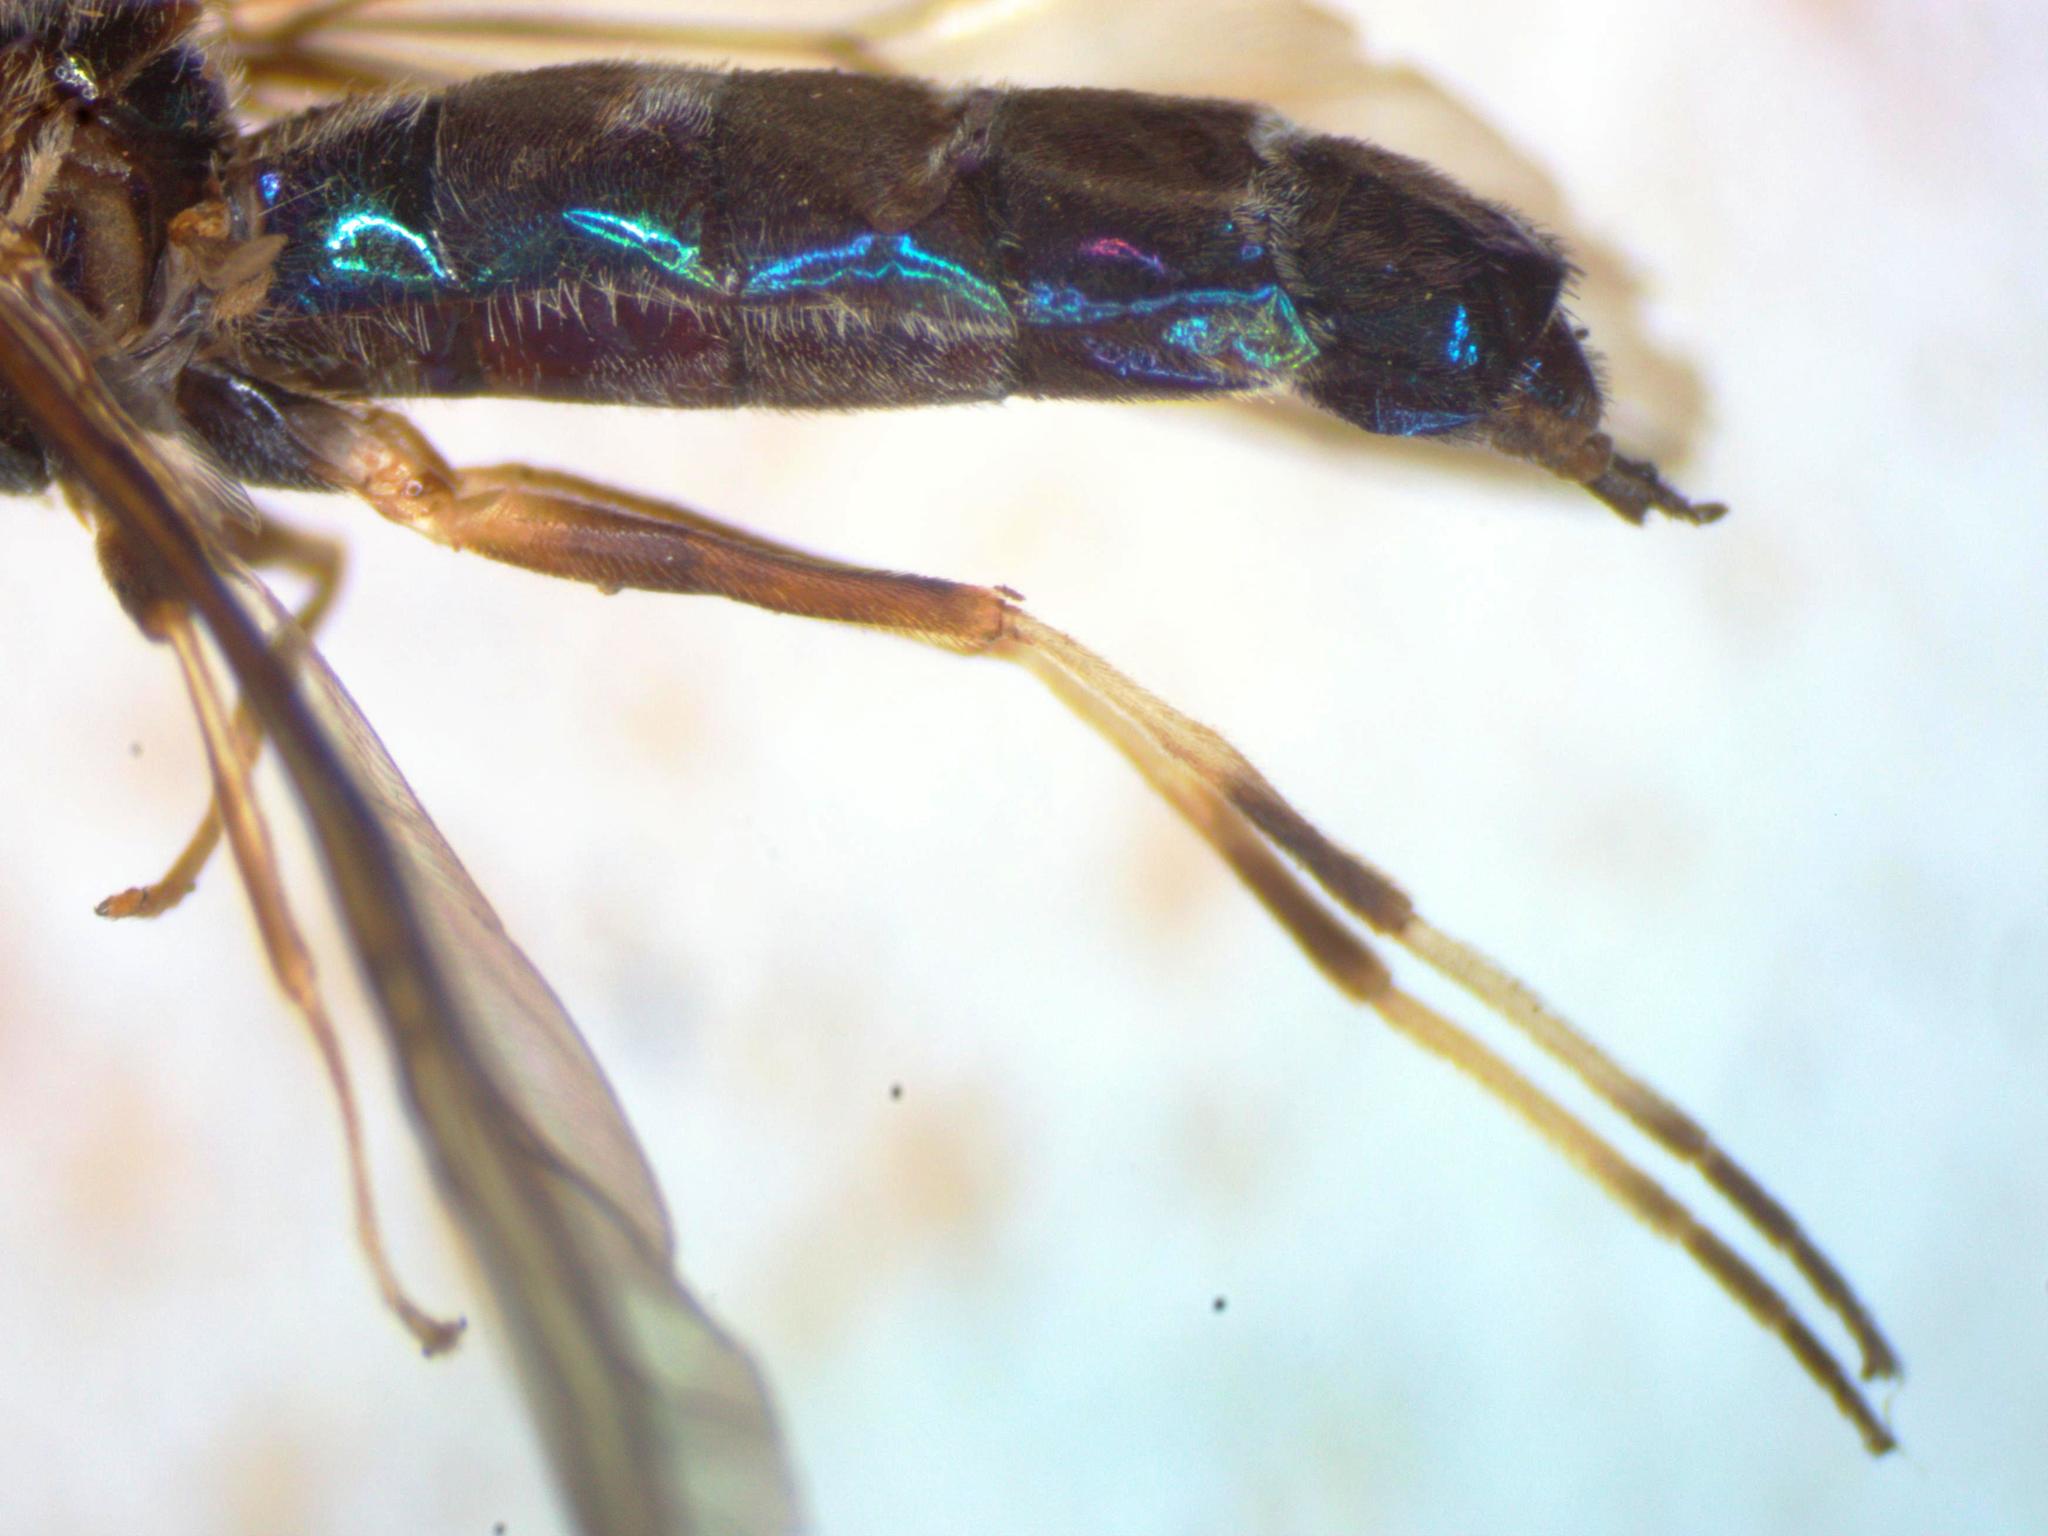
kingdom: Animalia
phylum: Arthropoda
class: Insecta
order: Diptera
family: Stratiomyidae
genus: Sargus
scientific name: Sargus speciosus
